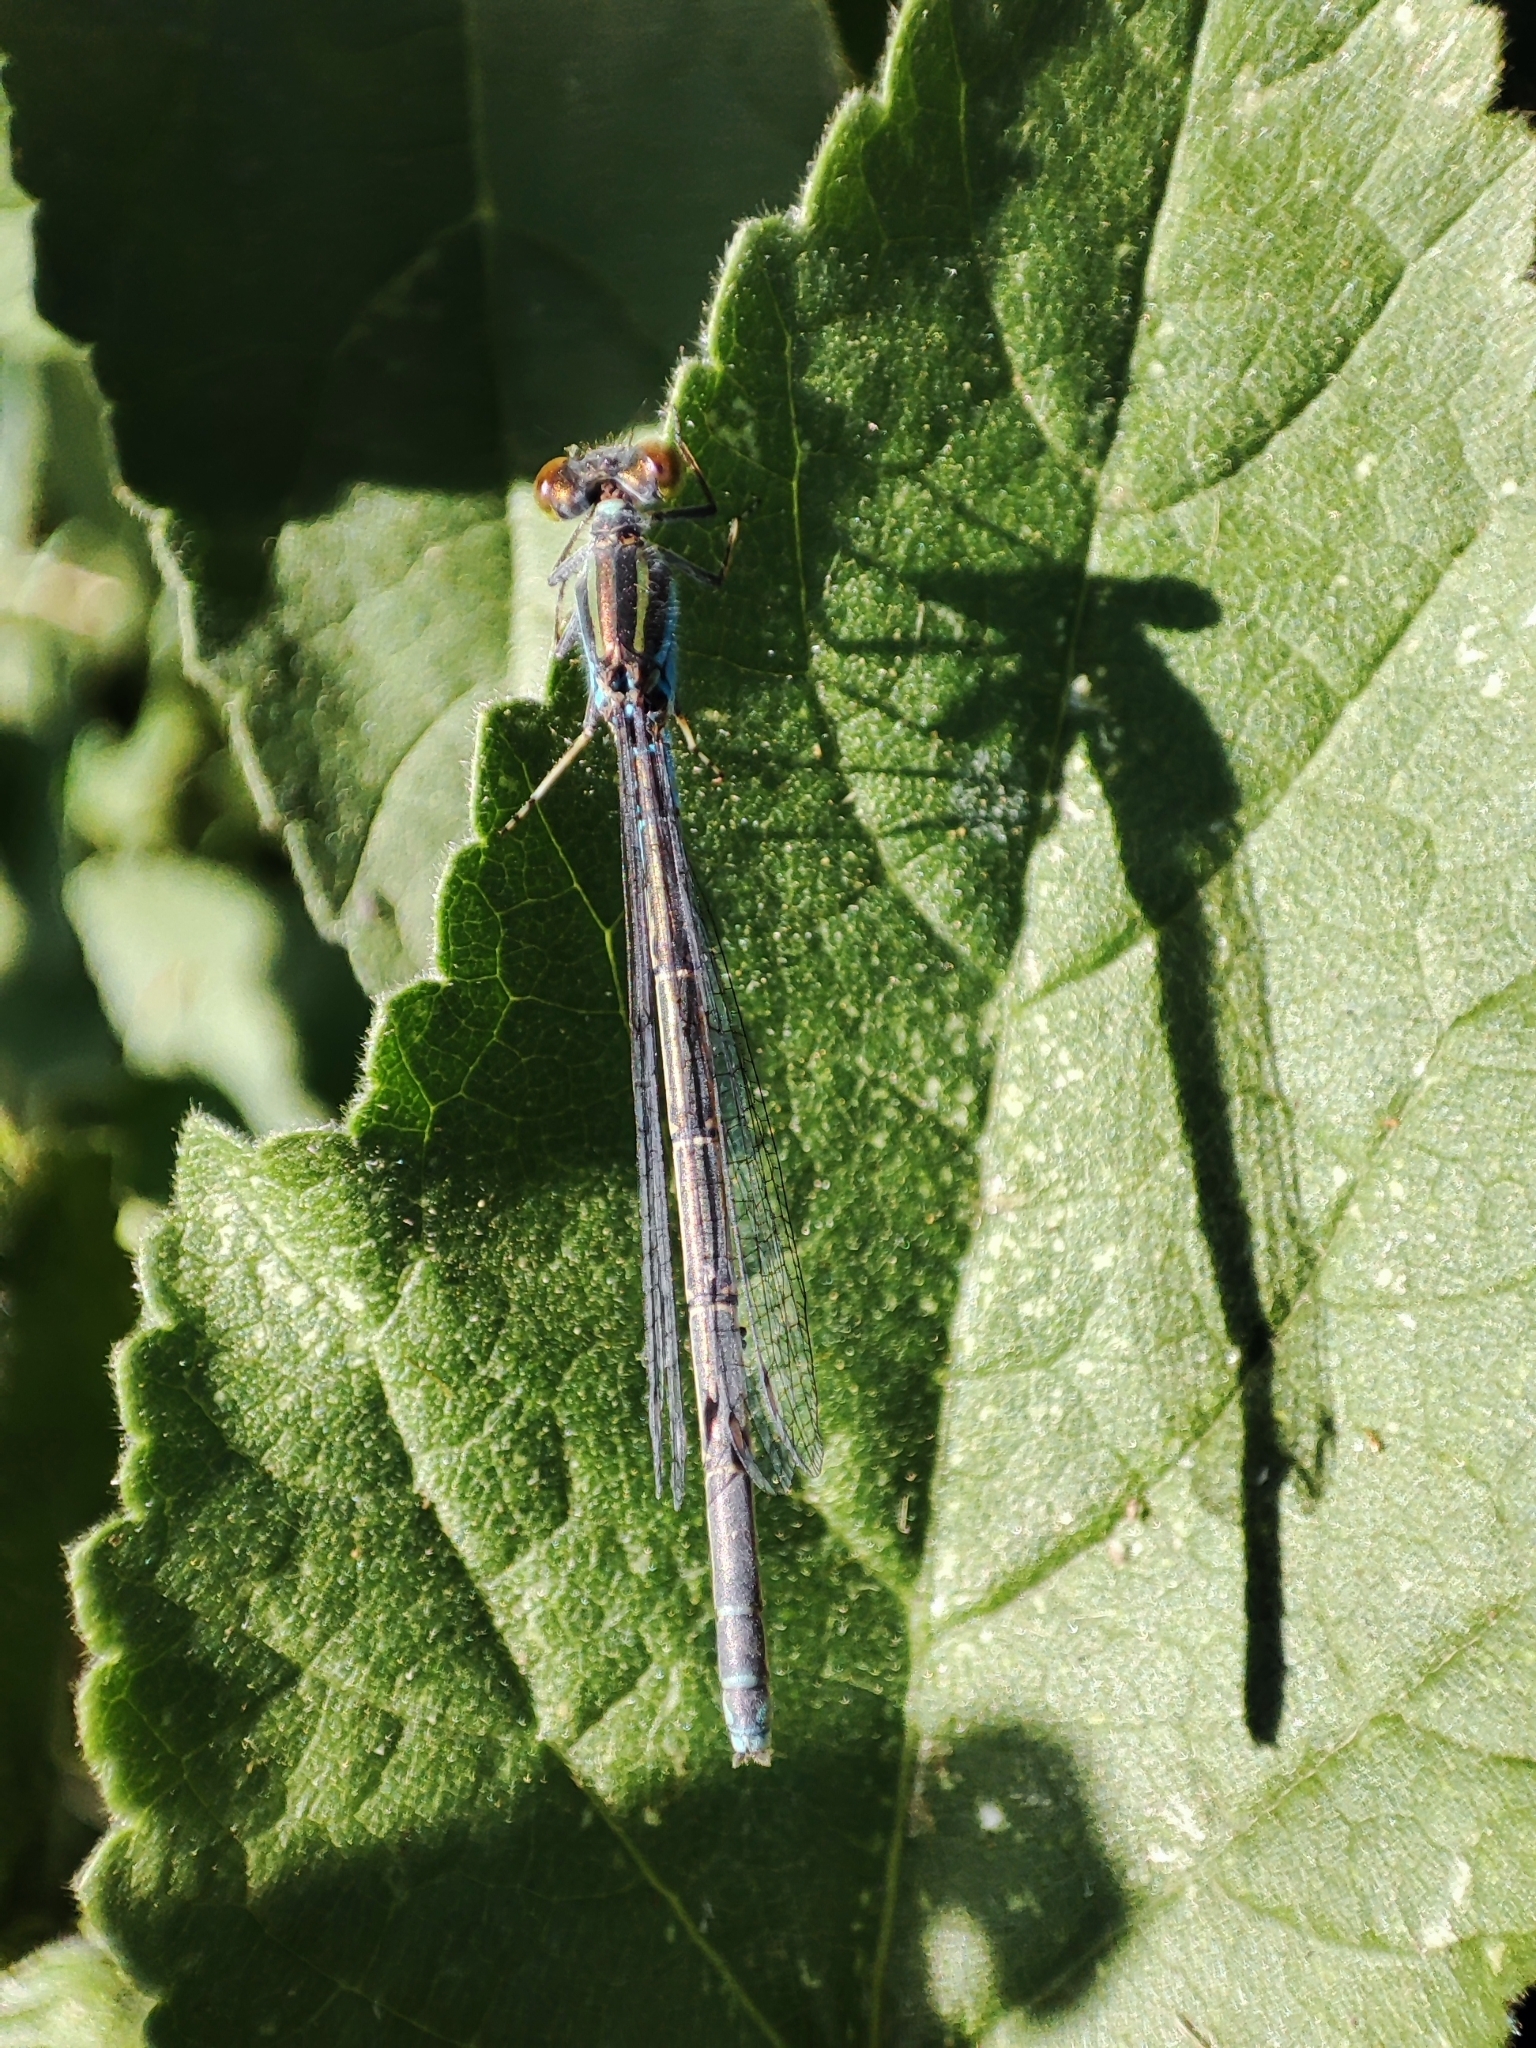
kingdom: Animalia
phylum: Arthropoda
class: Insecta
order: Odonata
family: Coenagrionidae
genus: Erythromma
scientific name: Erythromma viridulum
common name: Small red-eyed damselfly
